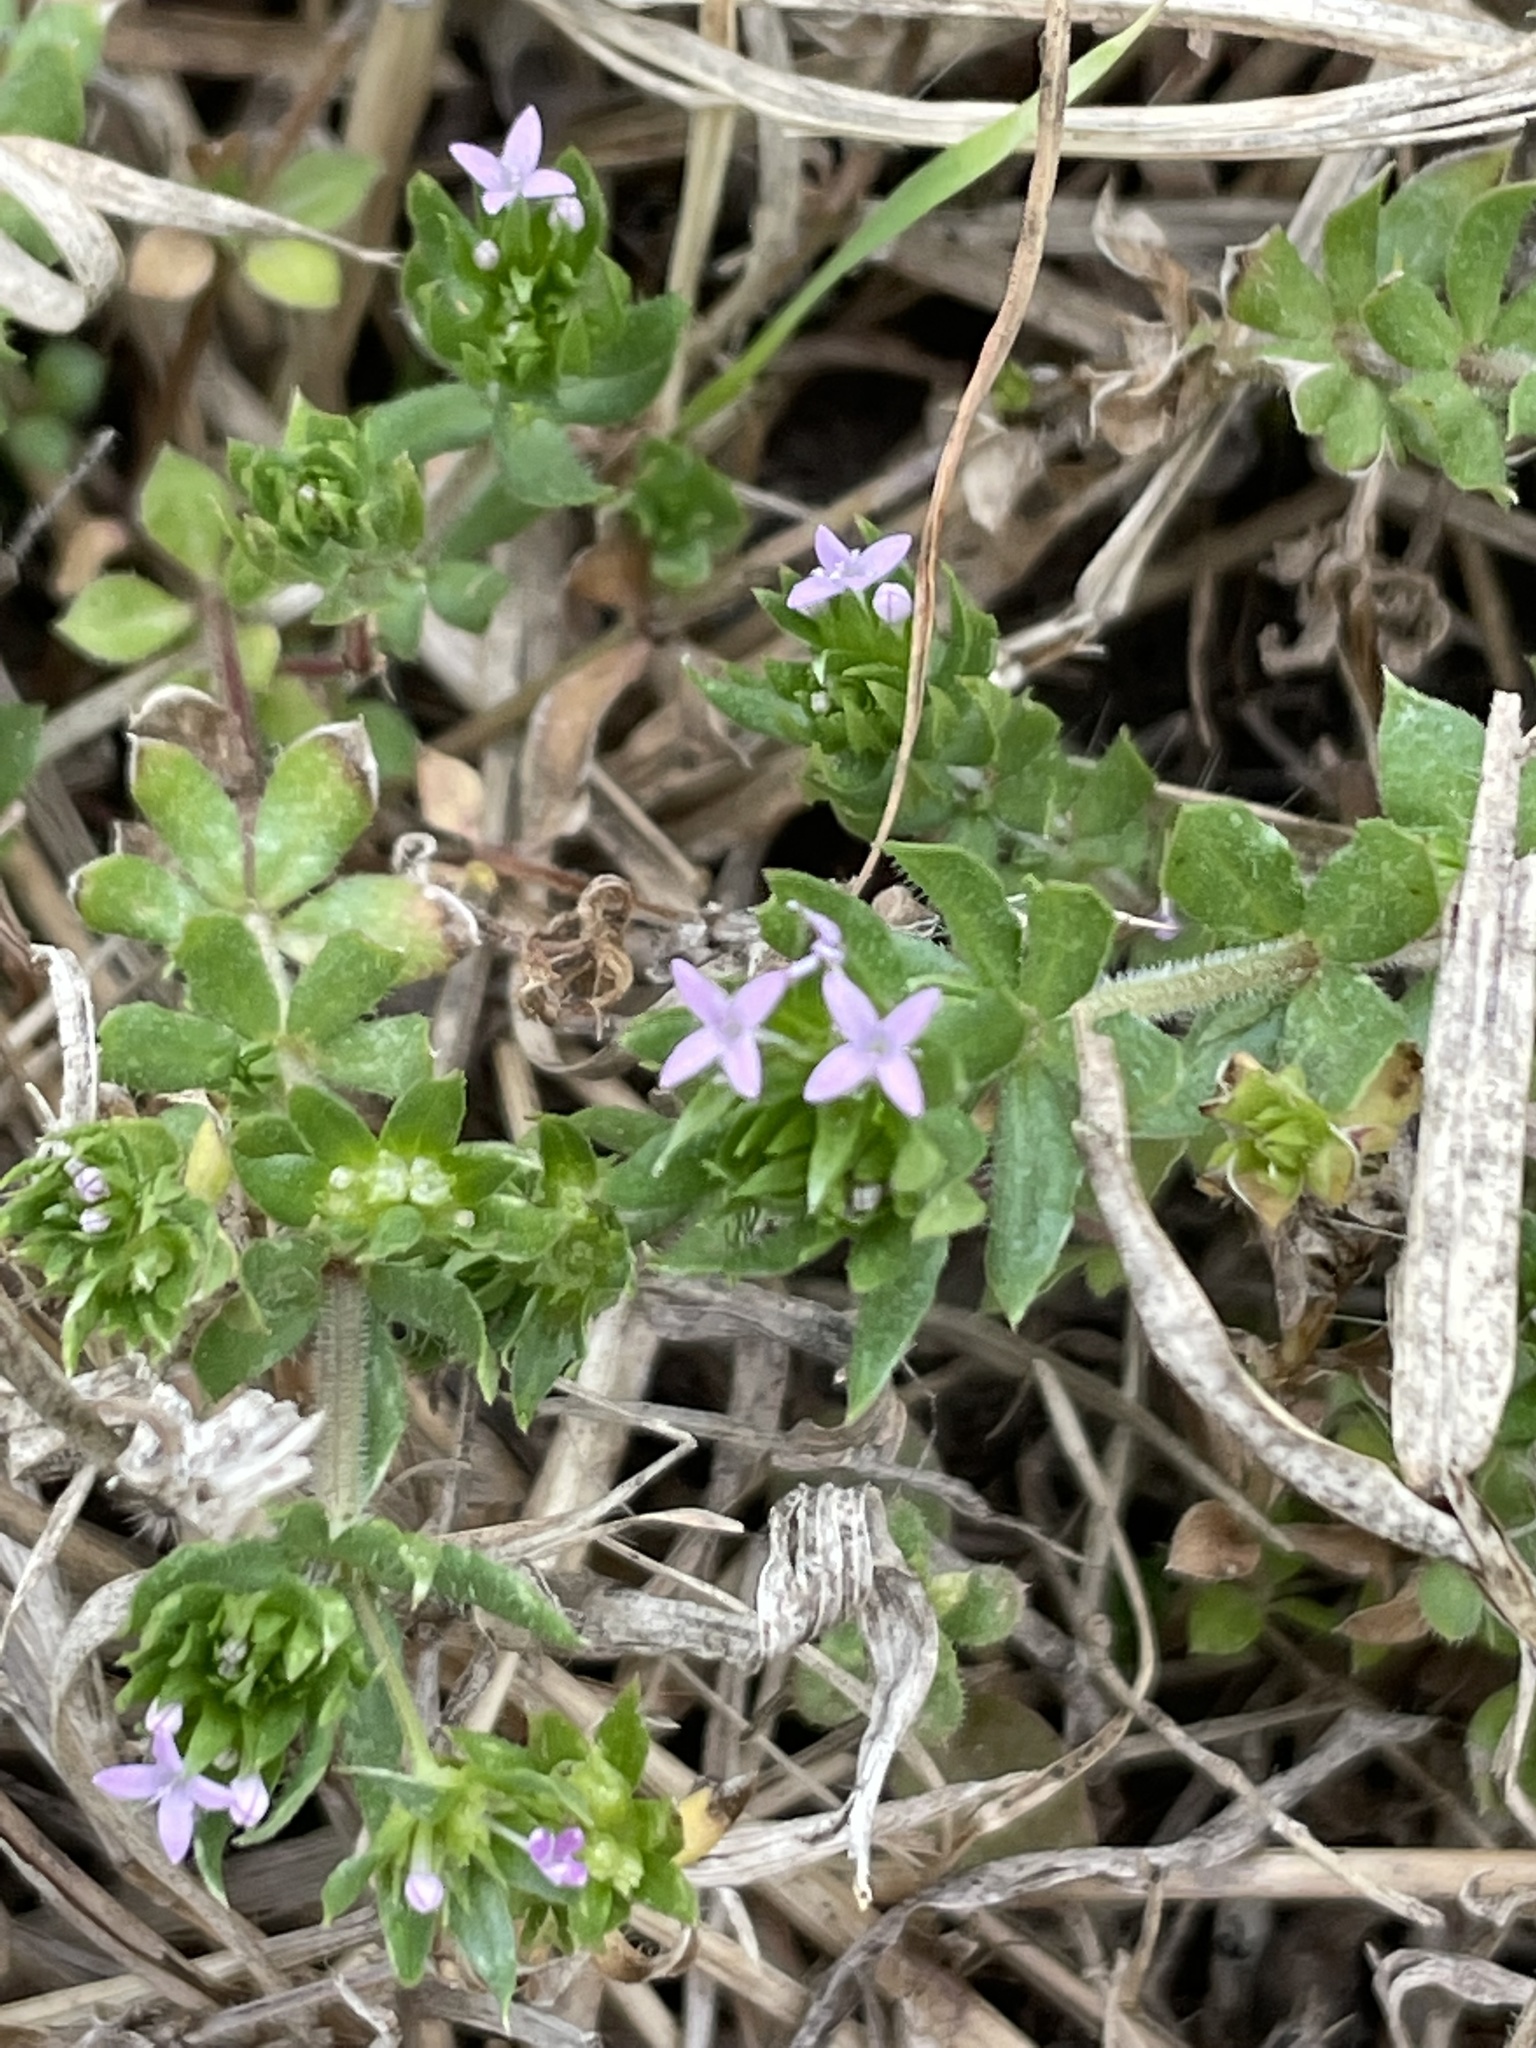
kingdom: Plantae
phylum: Tracheophyta
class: Magnoliopsida
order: Gentianales
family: Rubiaceae
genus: Sherardia
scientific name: Sherardia arvensis
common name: Field madder
